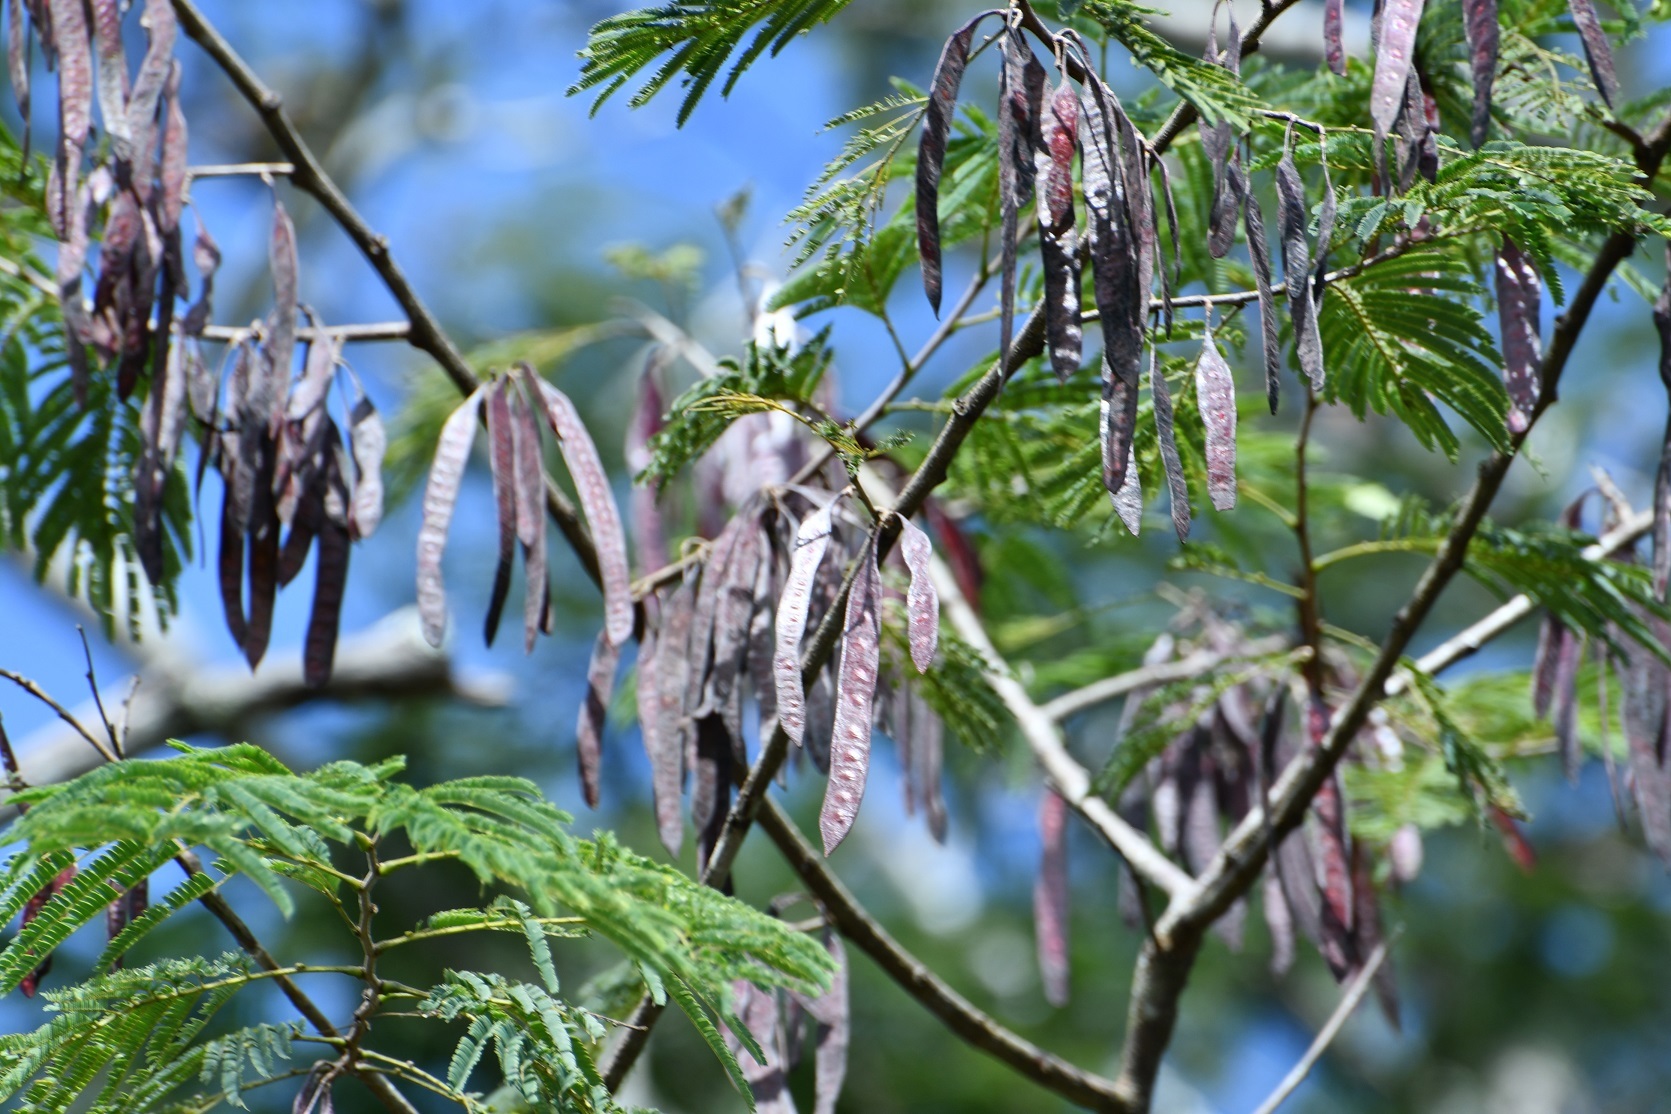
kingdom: Plantae
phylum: Tracheophyta
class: Magnoliopsida
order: Fabales
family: Fabaceae
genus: Leucaena
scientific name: Leucaena collinsii
